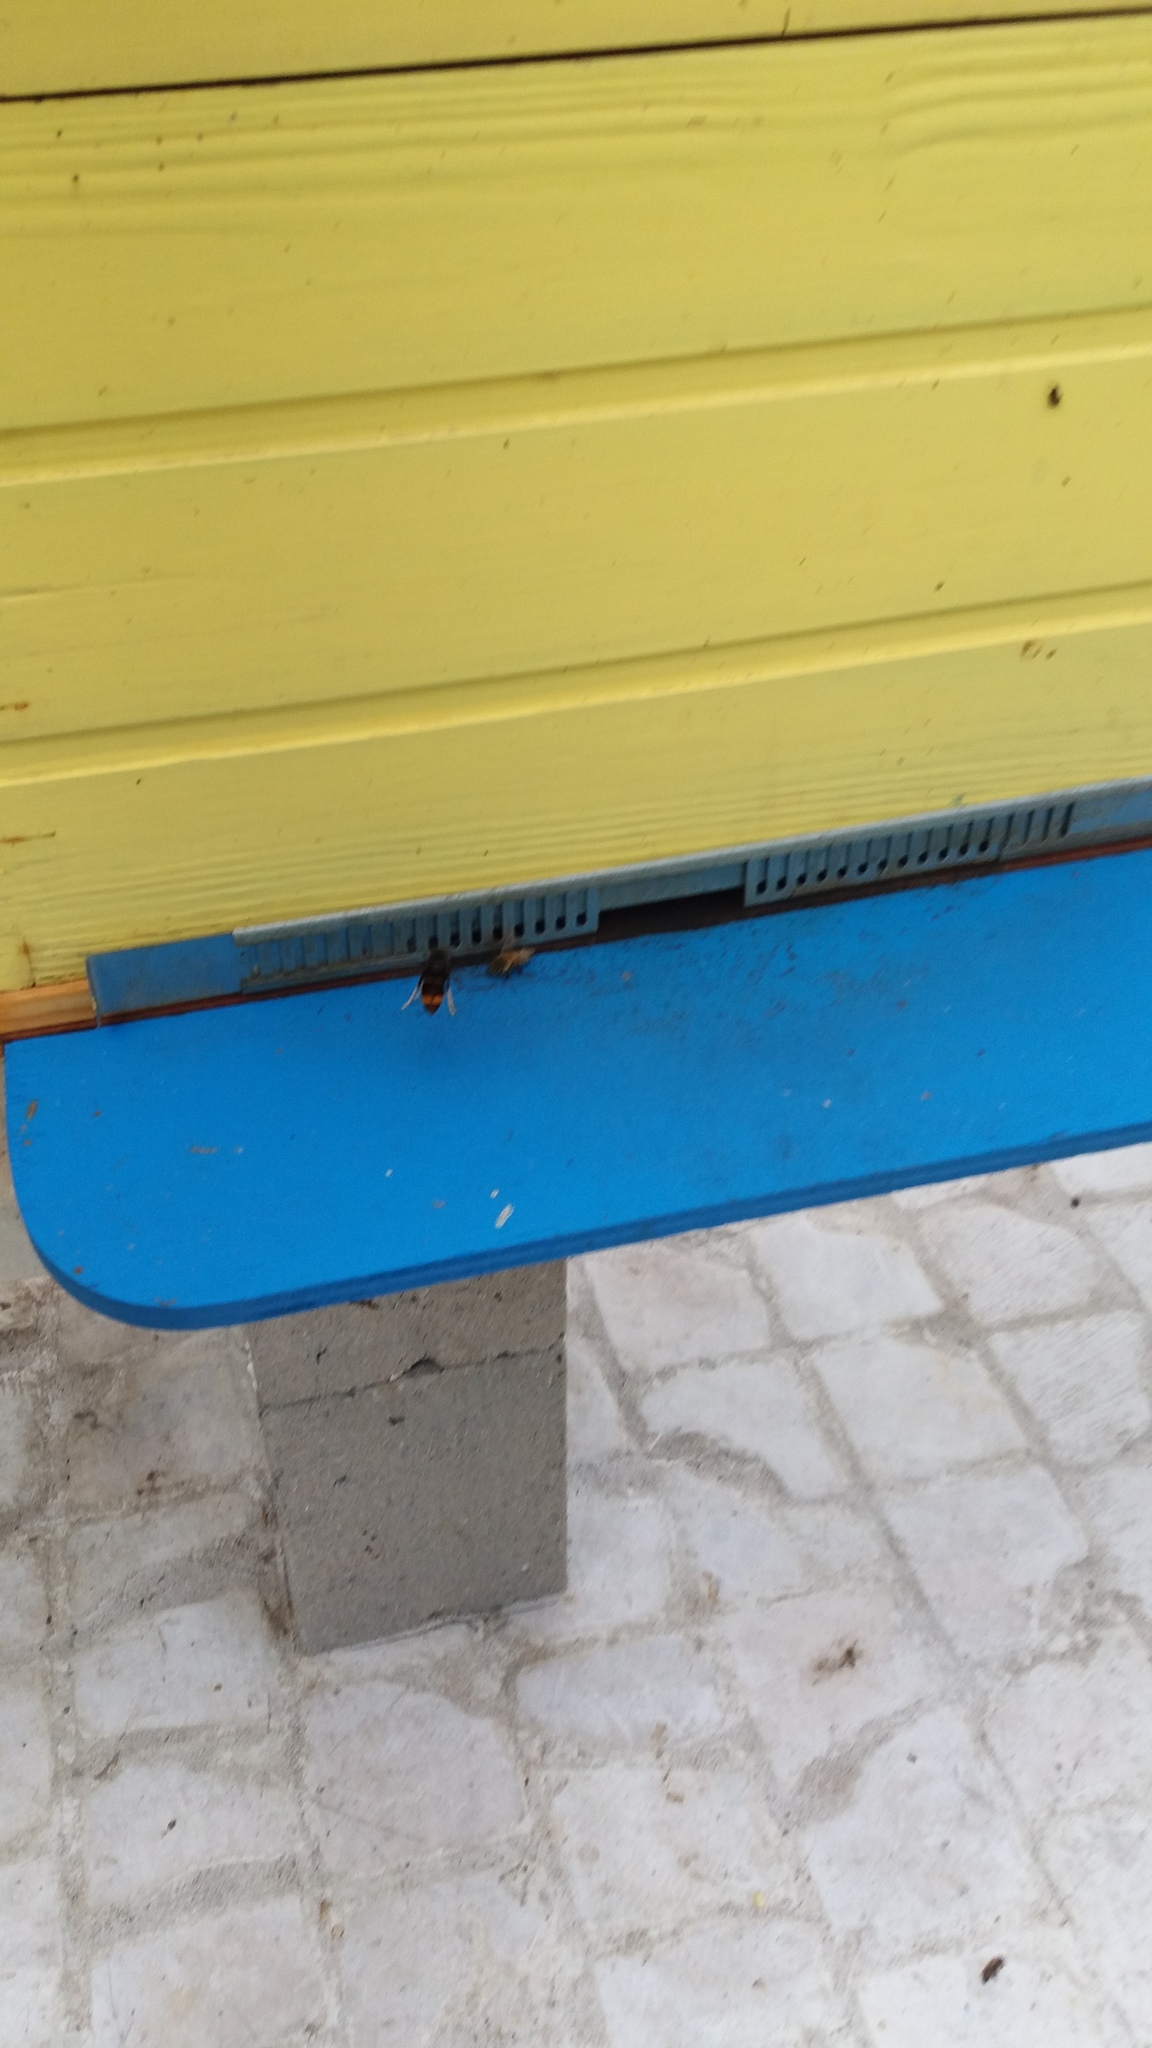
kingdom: Animalia
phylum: Arthropoda
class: Insecta
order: Hymenoptera
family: Vespidae
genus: Vespa
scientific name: Vespa velutina
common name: Asian hornet
